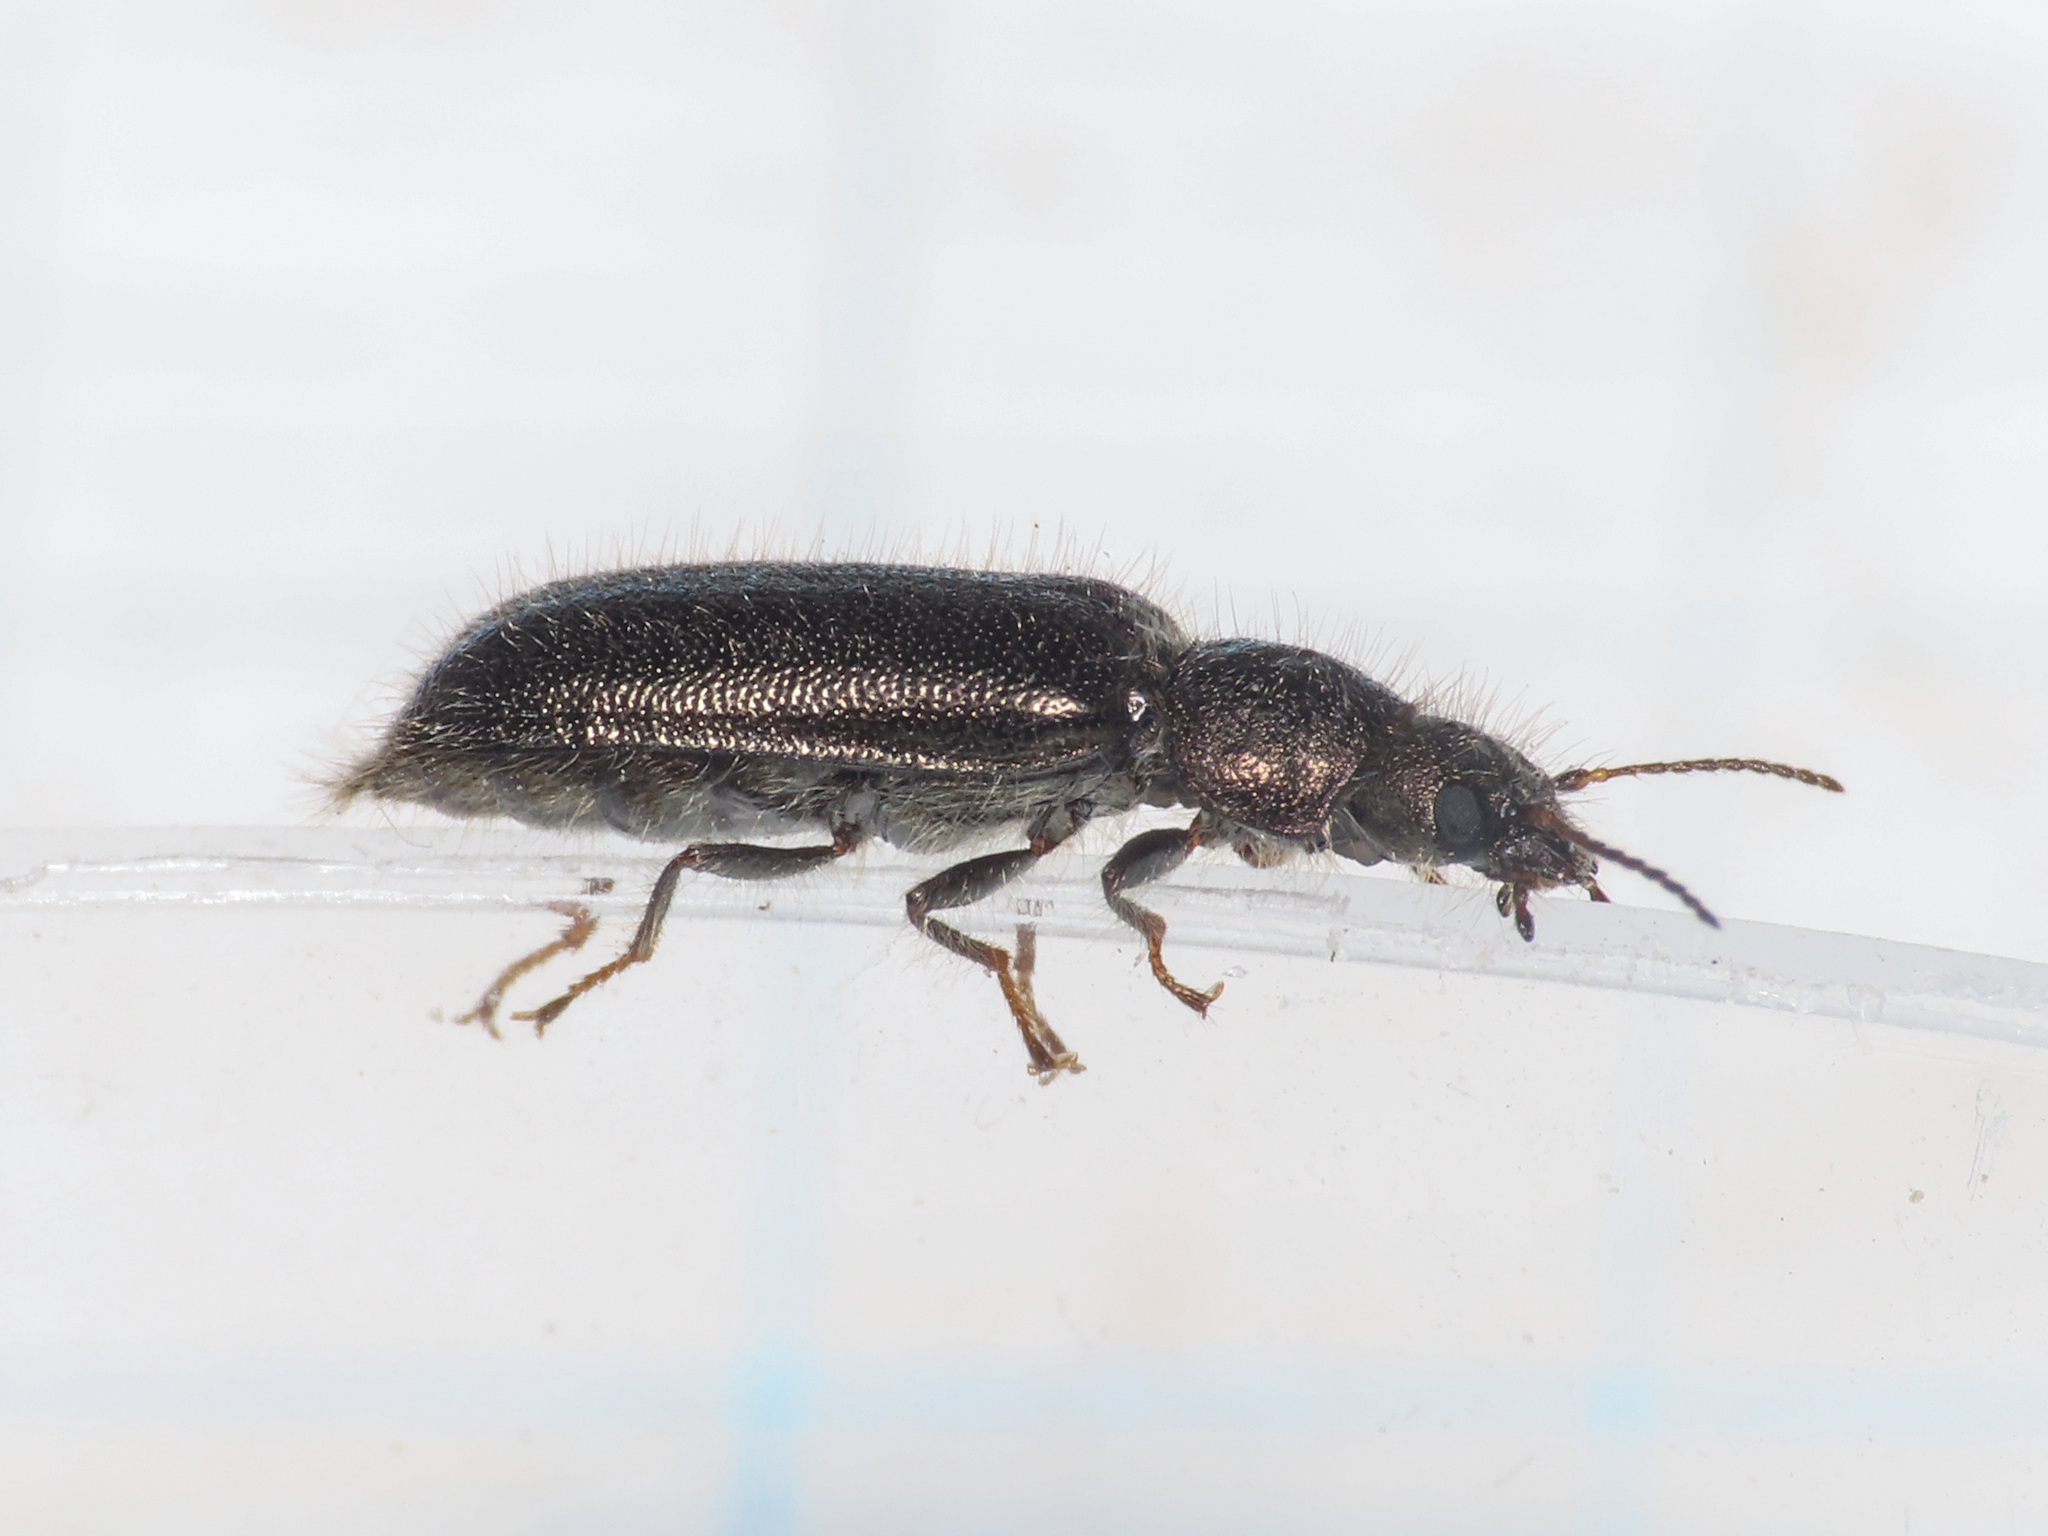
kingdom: Animalia
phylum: Arthropoda
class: Insecta
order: Coleoptera
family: Dasytidae
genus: Aplocnemus
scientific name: Aplocnemus jejunus
